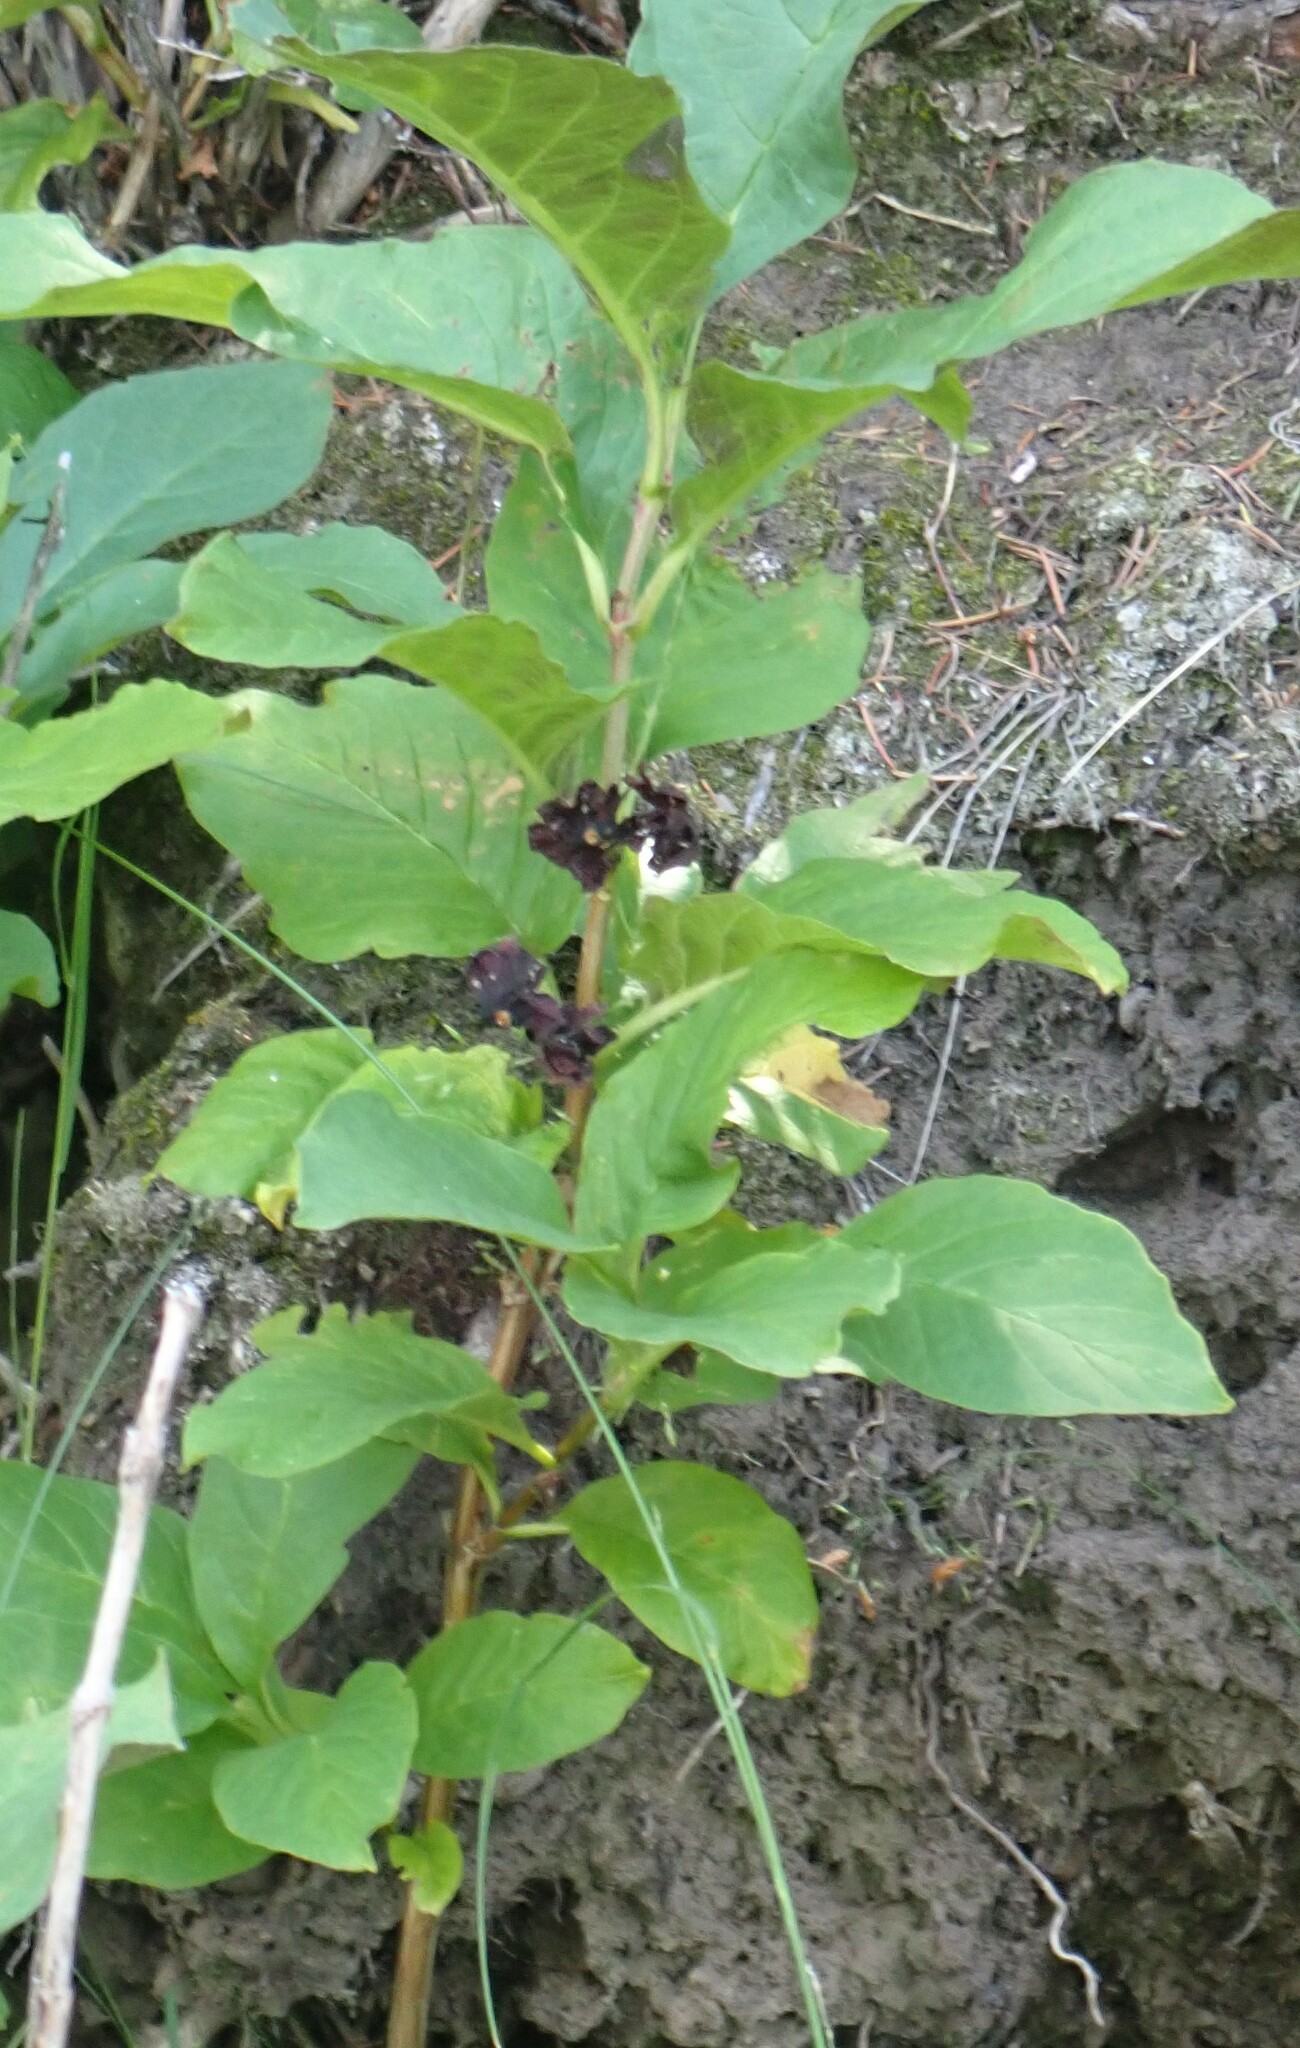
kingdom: Plantae
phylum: Tracheophyta
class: Magnoliopsida
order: Dipsacales
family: Caprifoliaceae
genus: Lonicera
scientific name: Lonicera involucrata
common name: Californian honeysuckle
